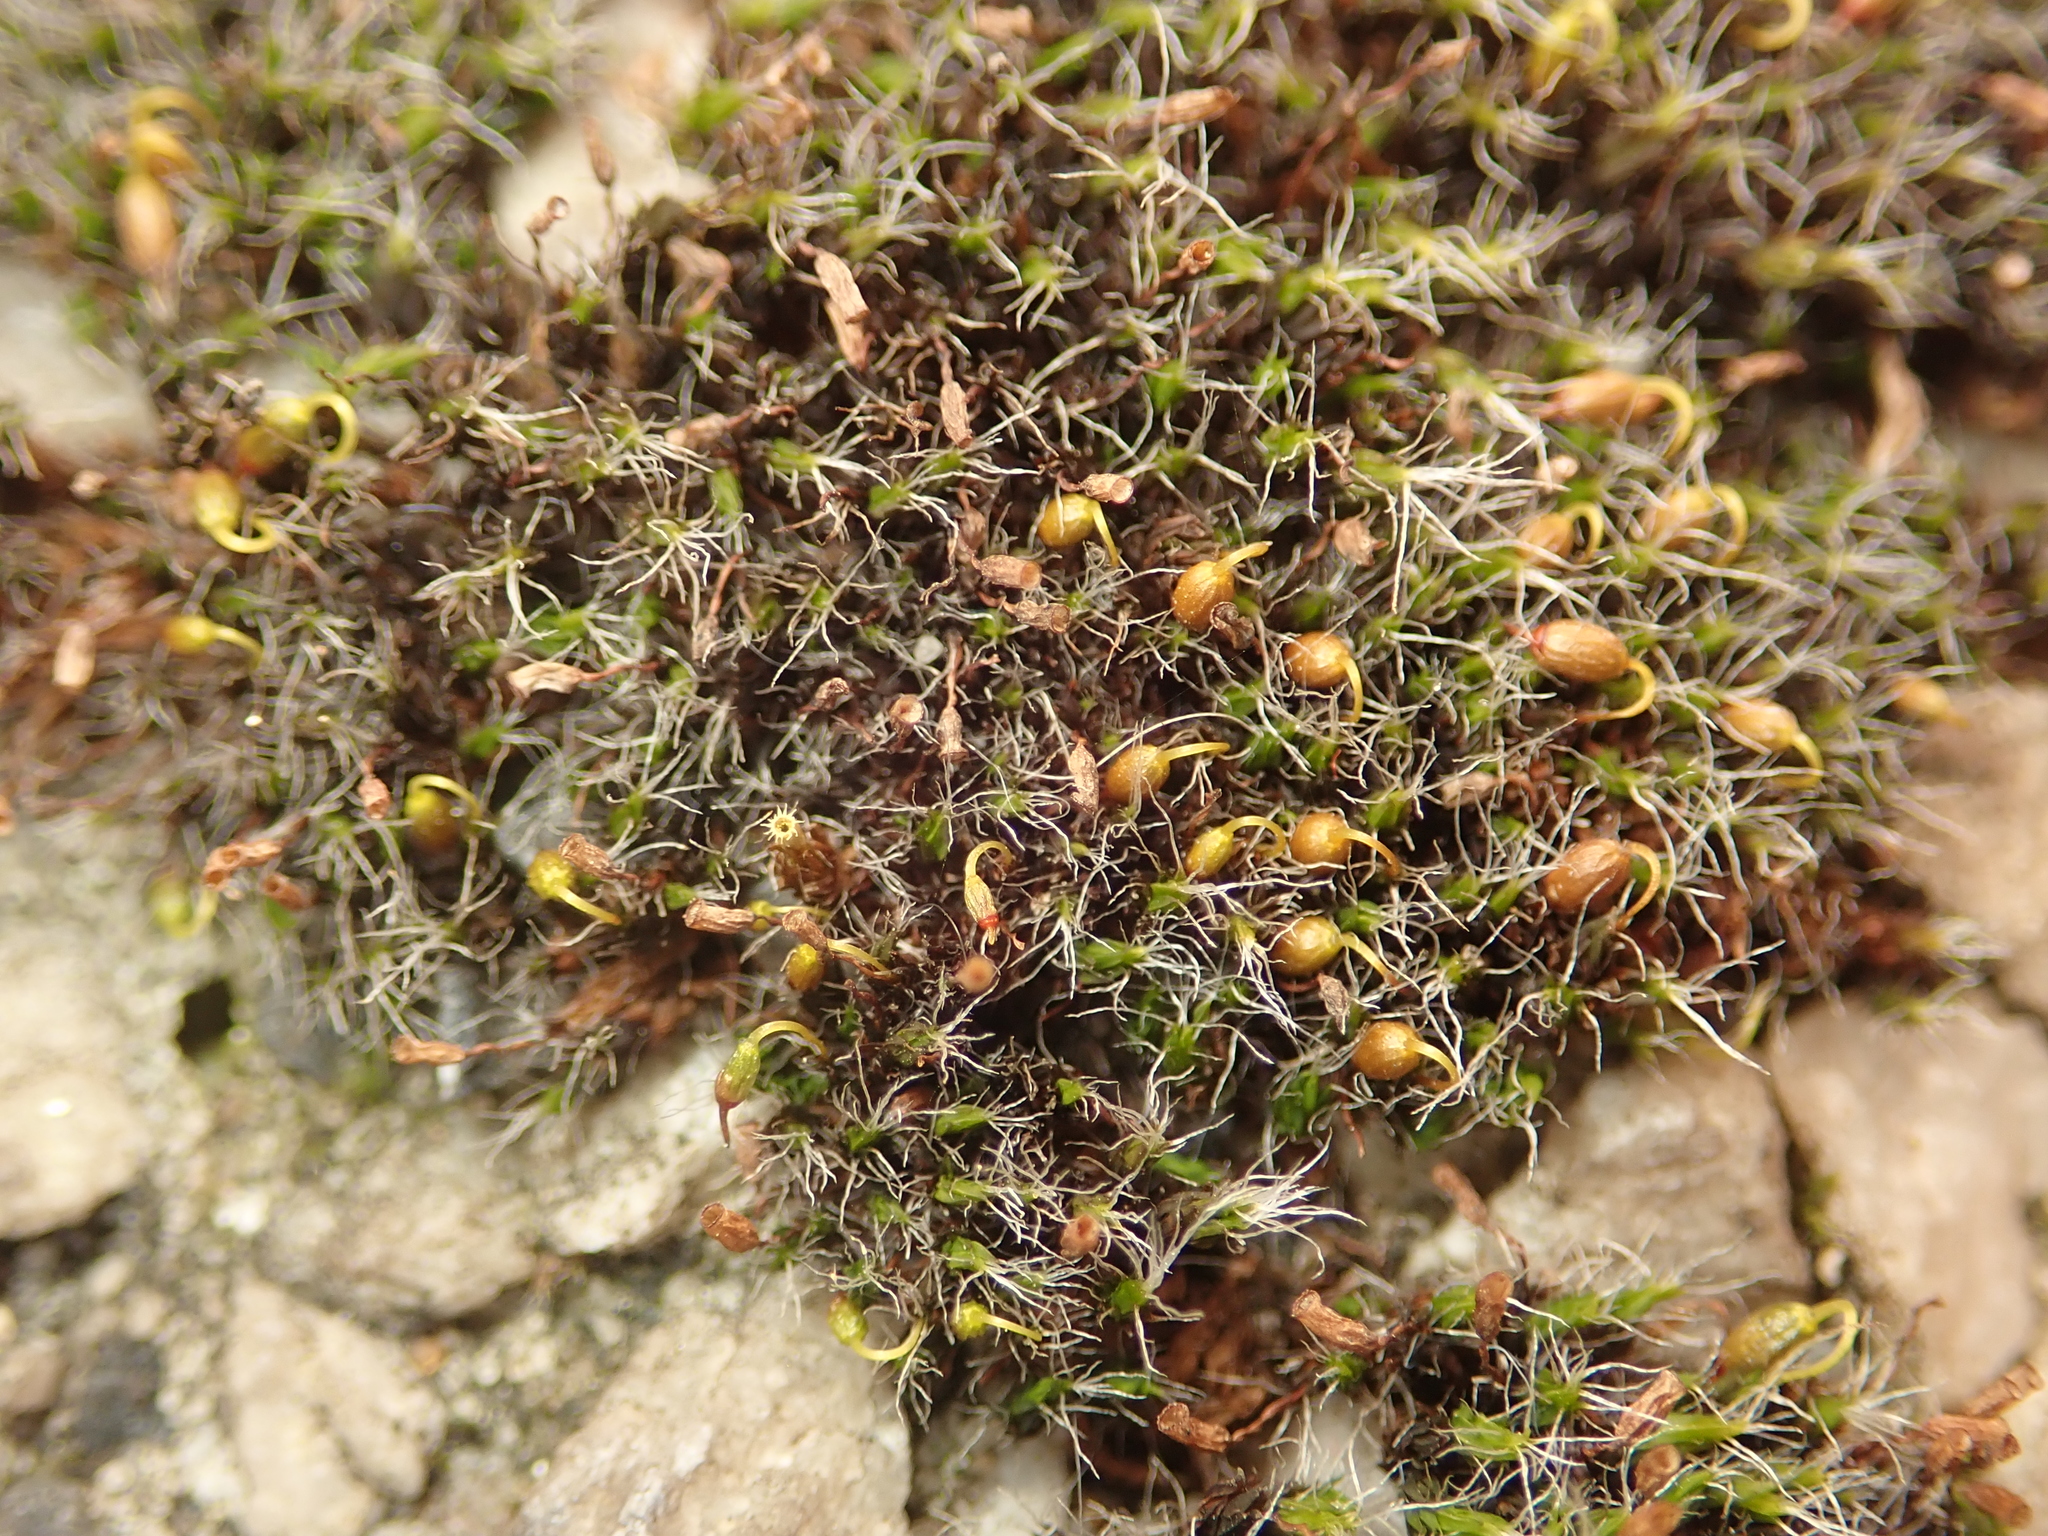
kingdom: Plantae
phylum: Bryophyta
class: Bryopsida
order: Grimmiales
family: Grimmiaceae
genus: Grimmia
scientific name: Grimmia pulvinata
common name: Grey-cushioned grimmia
